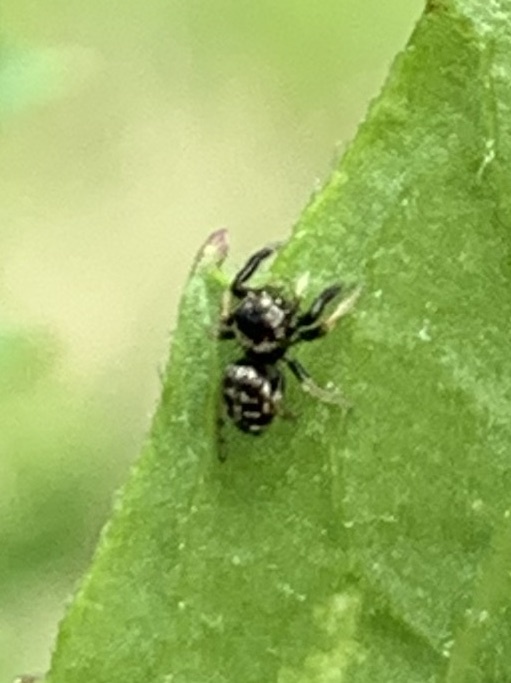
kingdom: Animalia
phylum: Arthropoda
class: Arachnida
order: Araneae
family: Salticidae
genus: Salticus
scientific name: Salticus scenicus
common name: Zebra jumper
